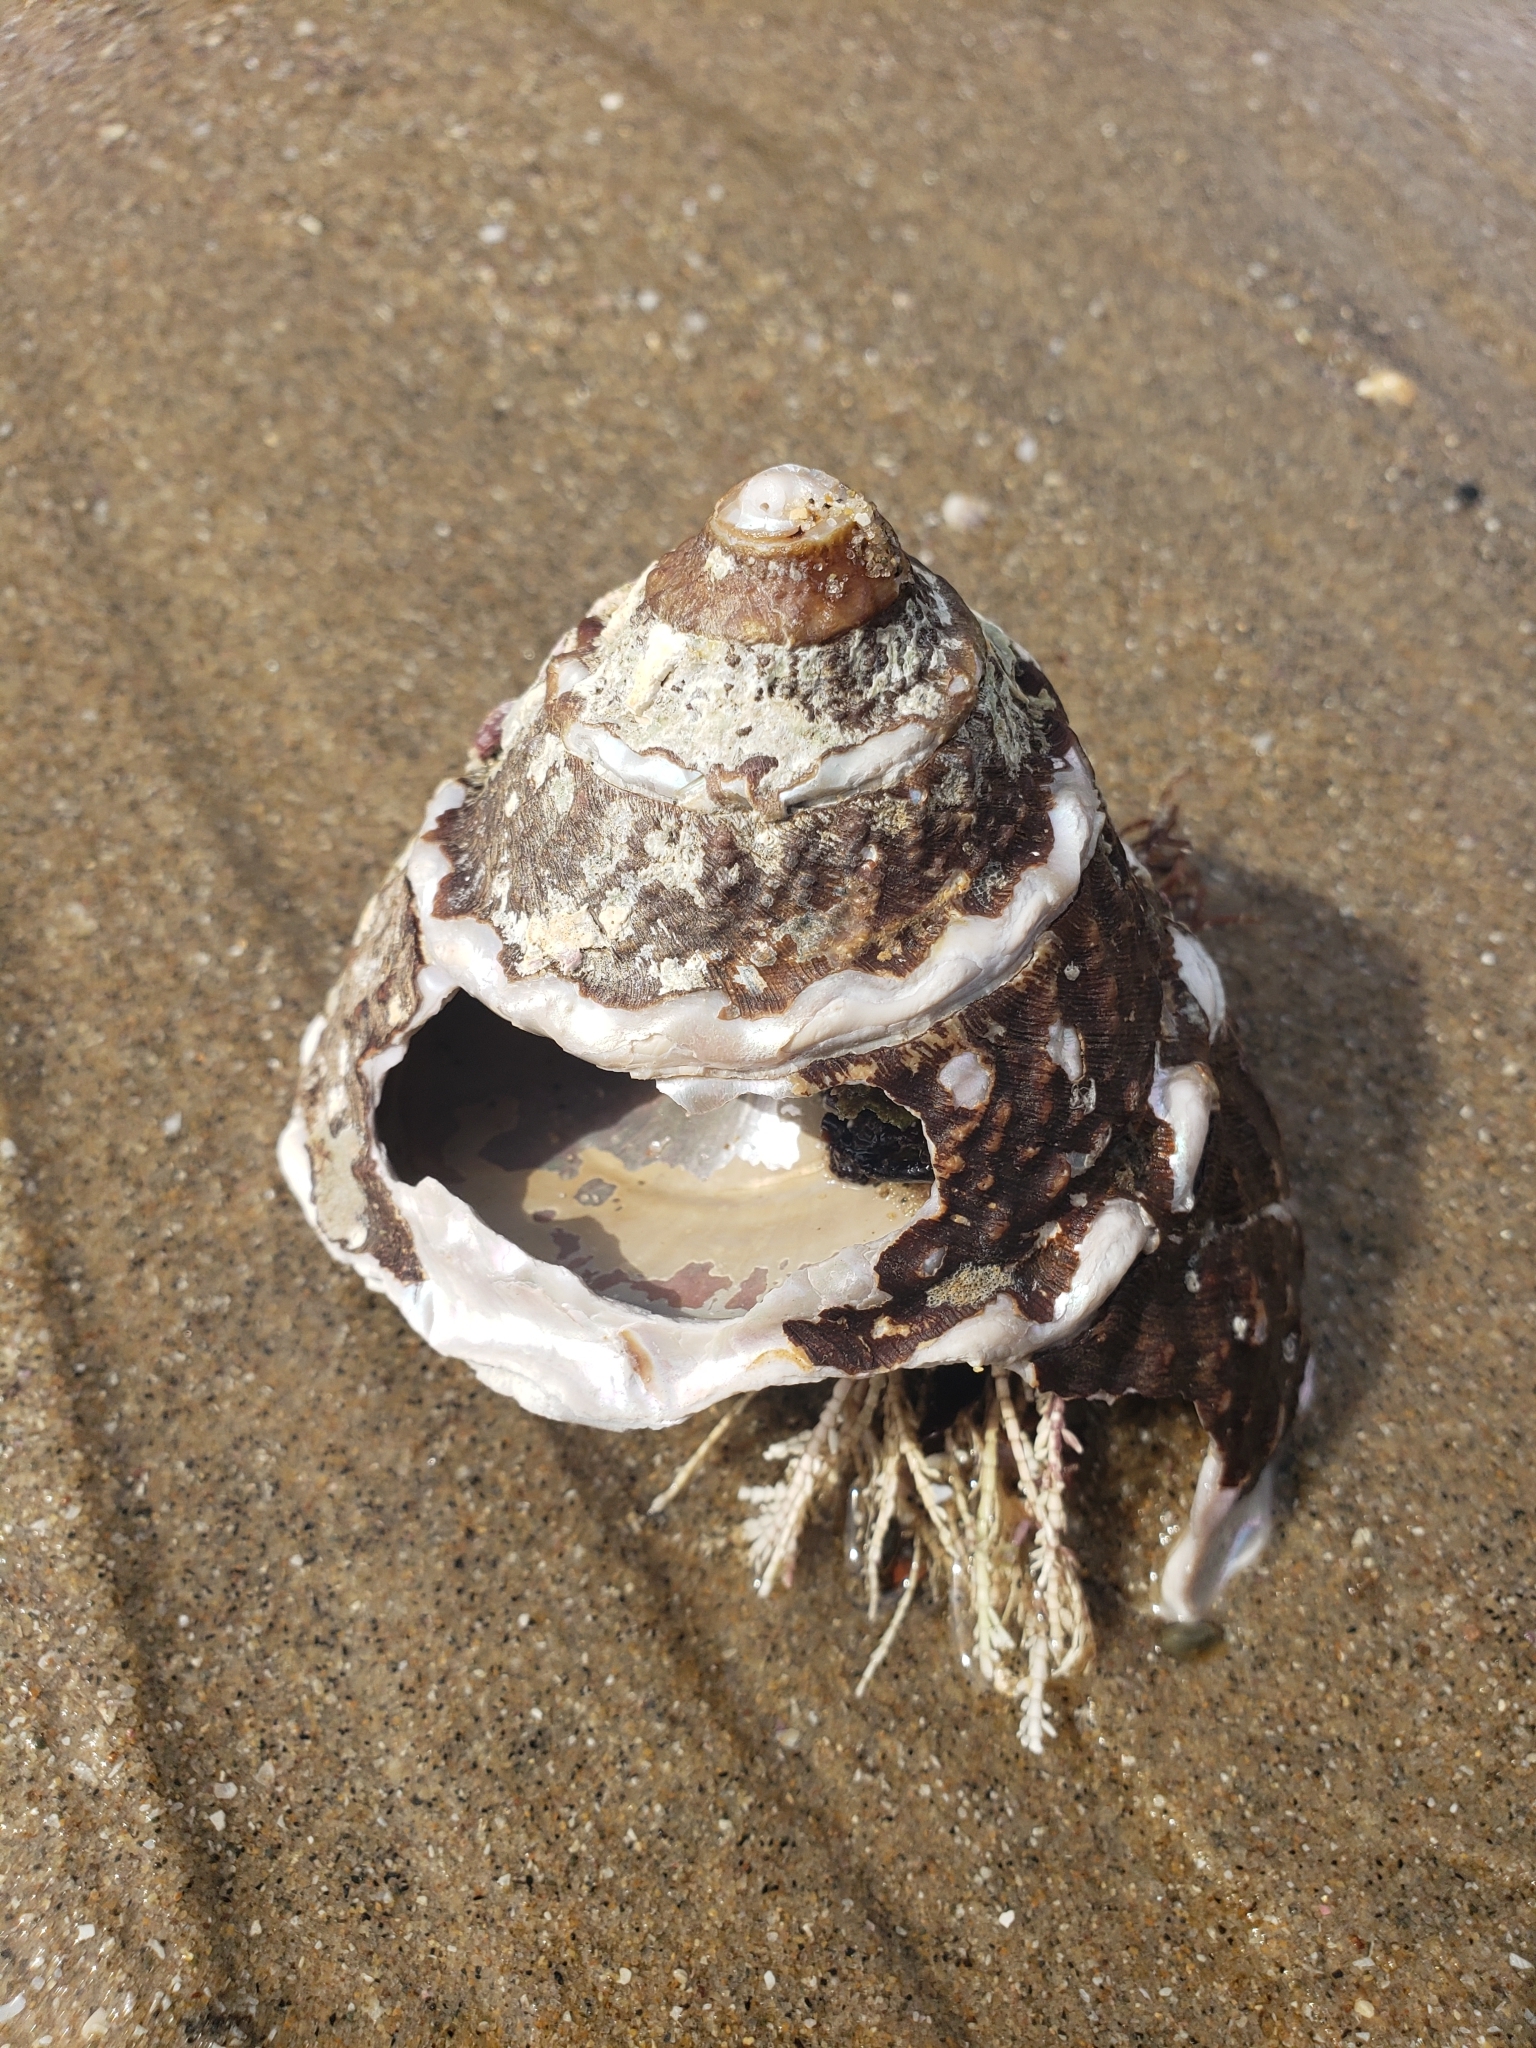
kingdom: Animalia
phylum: Mollusca
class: Gastropoda
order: Trochida
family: Turbinidae
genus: Megastraea
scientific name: Megastraea undosa
